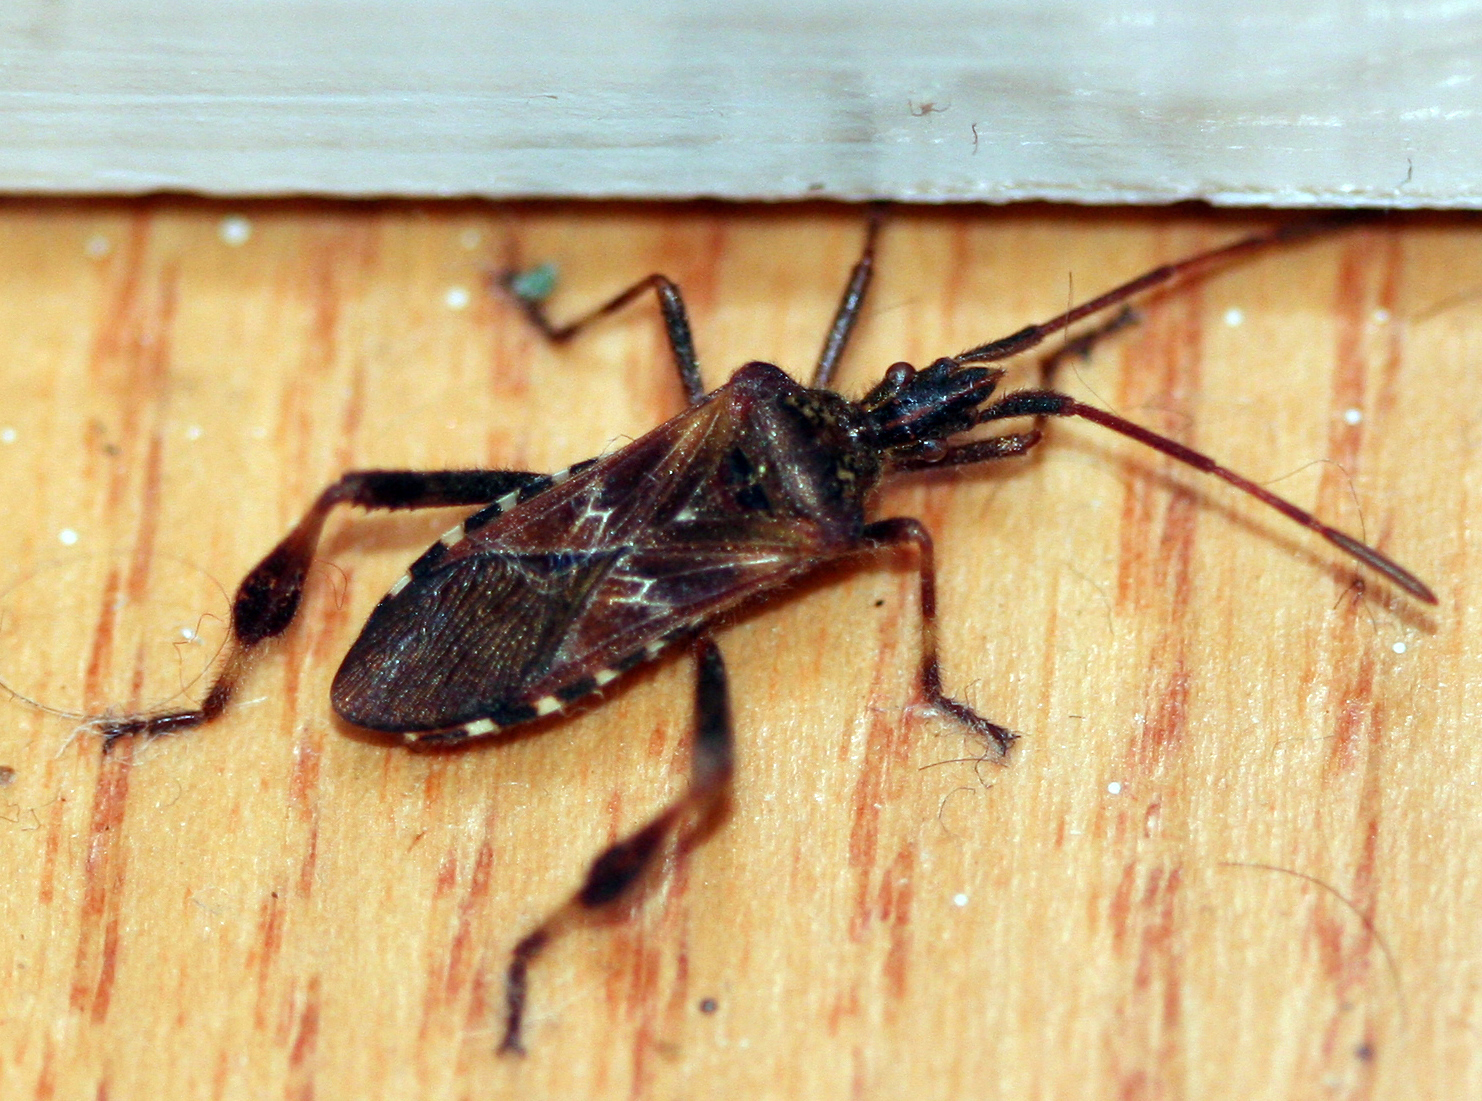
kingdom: Animalia
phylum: Arthropoda
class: Insecta
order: Hemiptera
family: Coreidae
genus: Leptoglossus
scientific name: Leptoglossus occidentalis
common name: Western conifer-seed bug
